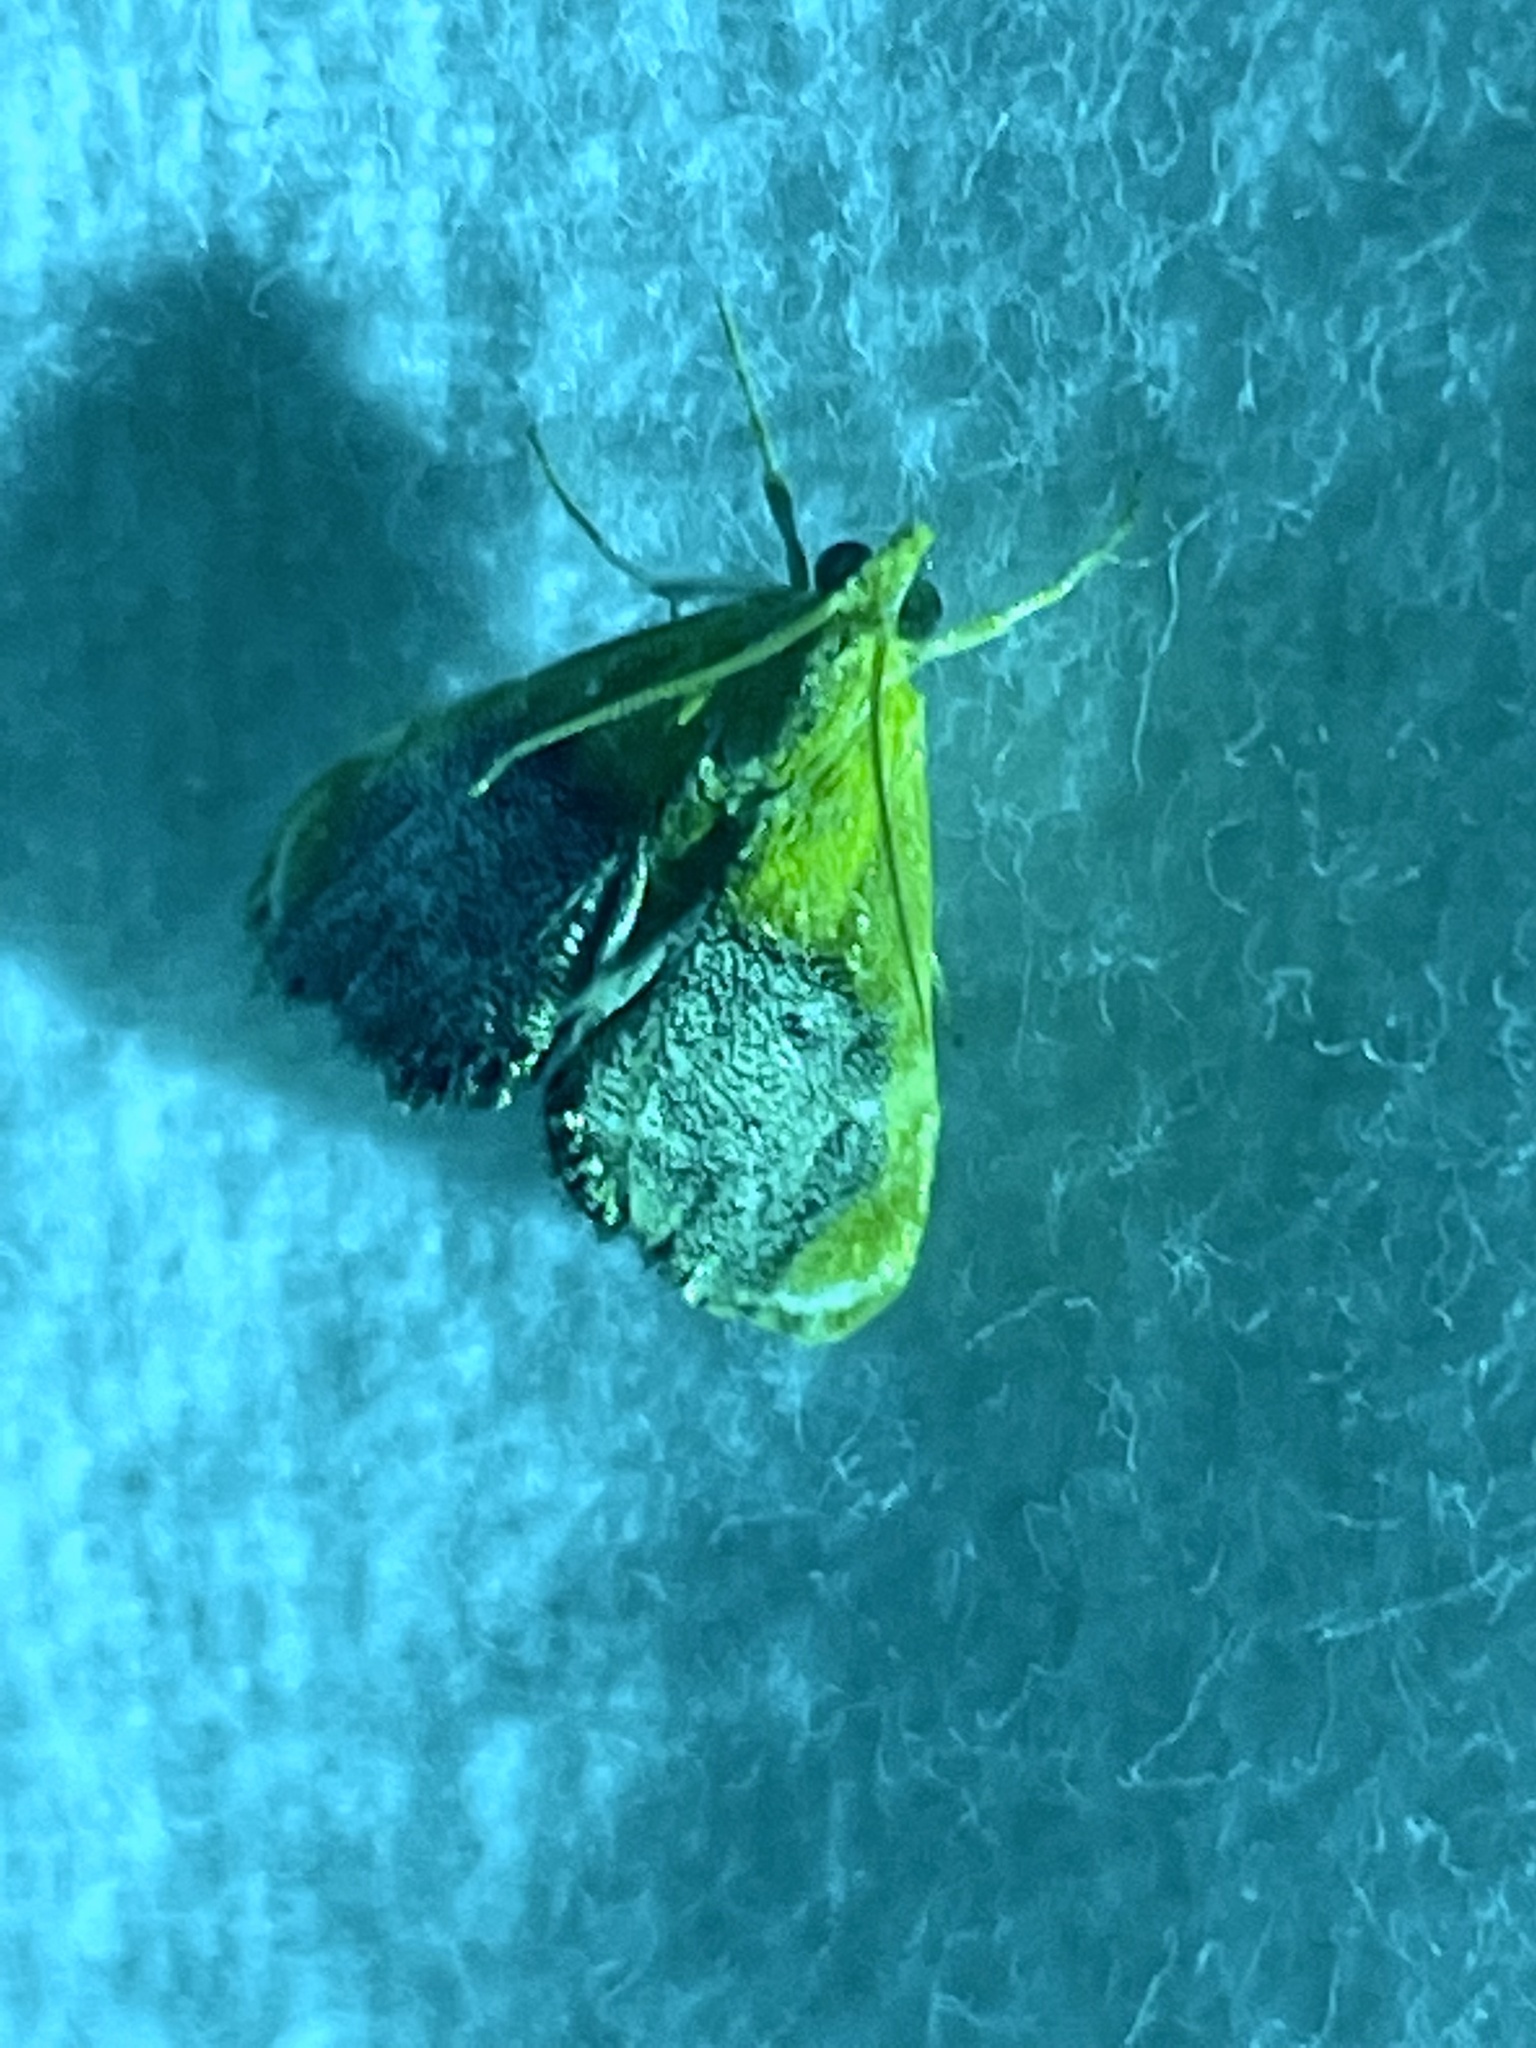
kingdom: Animalia
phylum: Arthropoda
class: Insecta
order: Lepidoptera
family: Crambidae
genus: Chalcoela
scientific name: Chalcoela iphitalis
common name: Sooty-winged chalcoela moth
